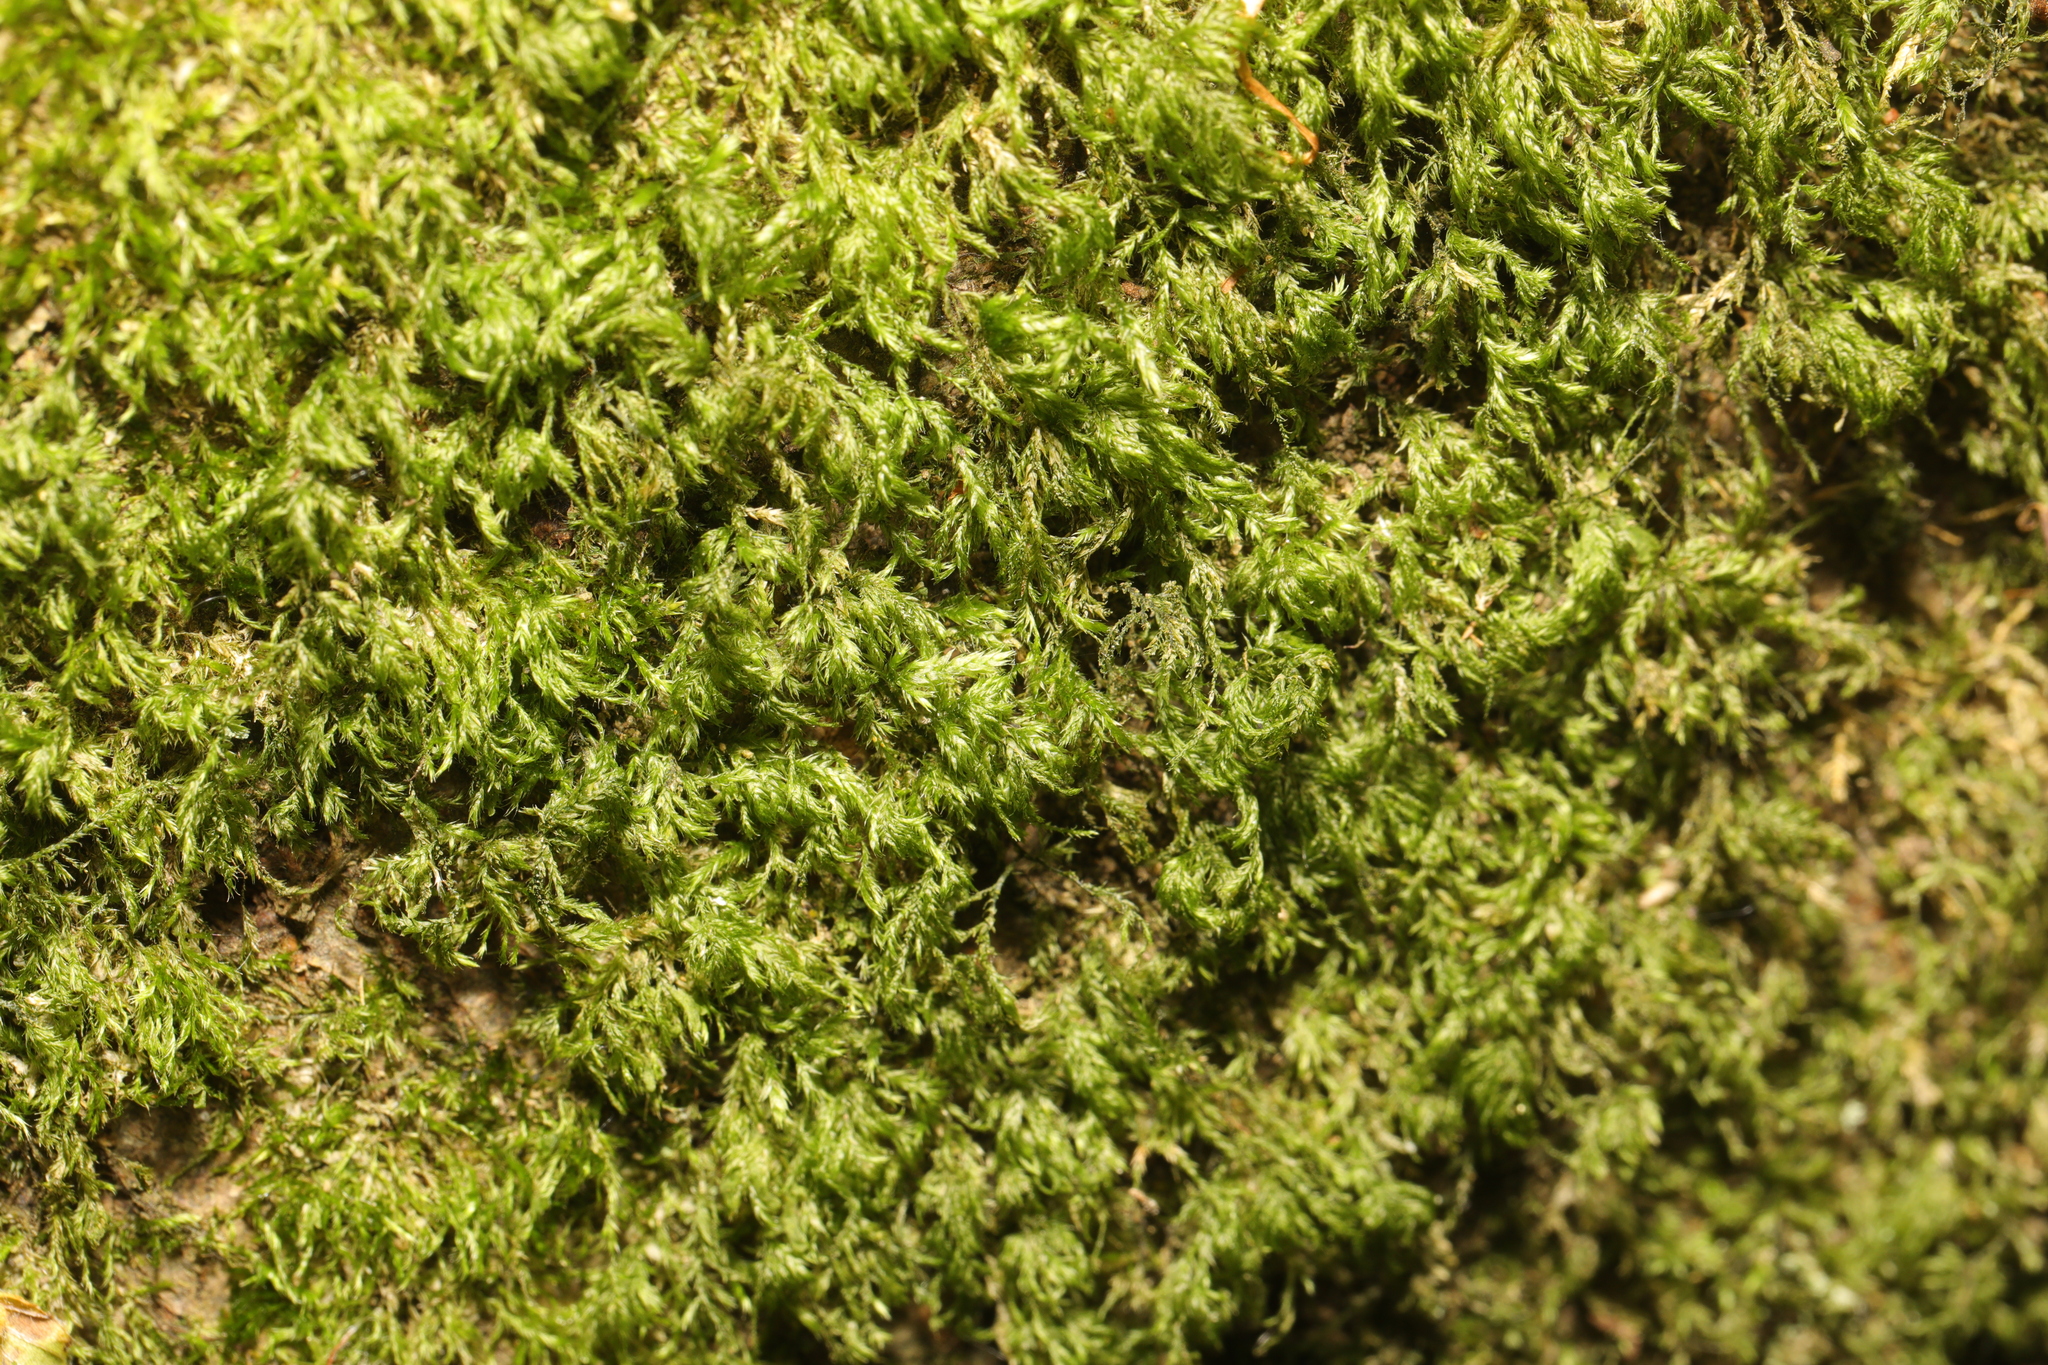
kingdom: Plantae
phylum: Bryophyta
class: Bryopsida
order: Hypnales
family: Lembophyllaceae
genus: Pseudisothecium
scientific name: Pseudisothecium myosuroides
